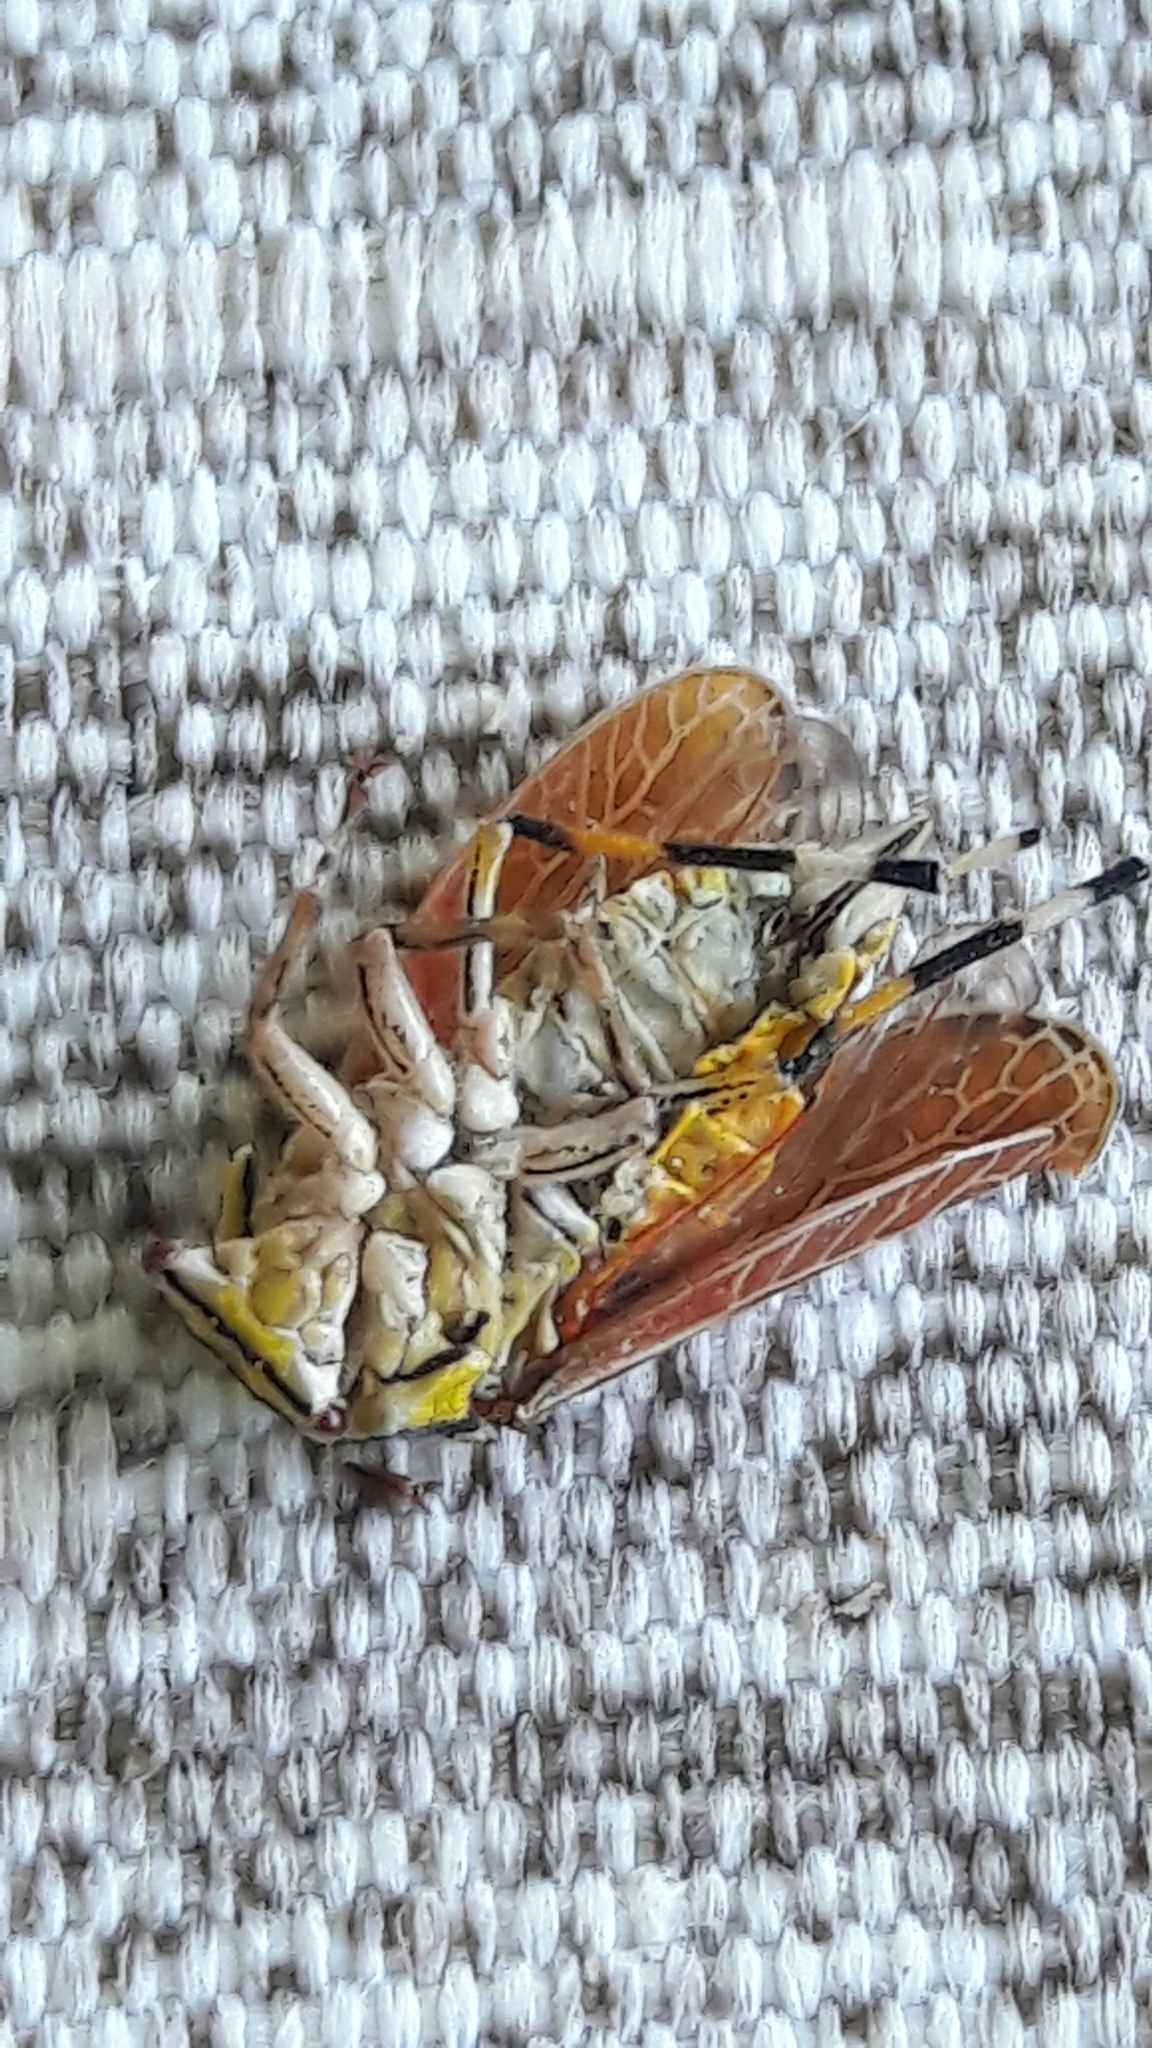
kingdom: Animalia
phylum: Arthropoda
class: Insecta
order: Hemiptera
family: Aetalionidae
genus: Aetalion
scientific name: Aetalion reticulatum
